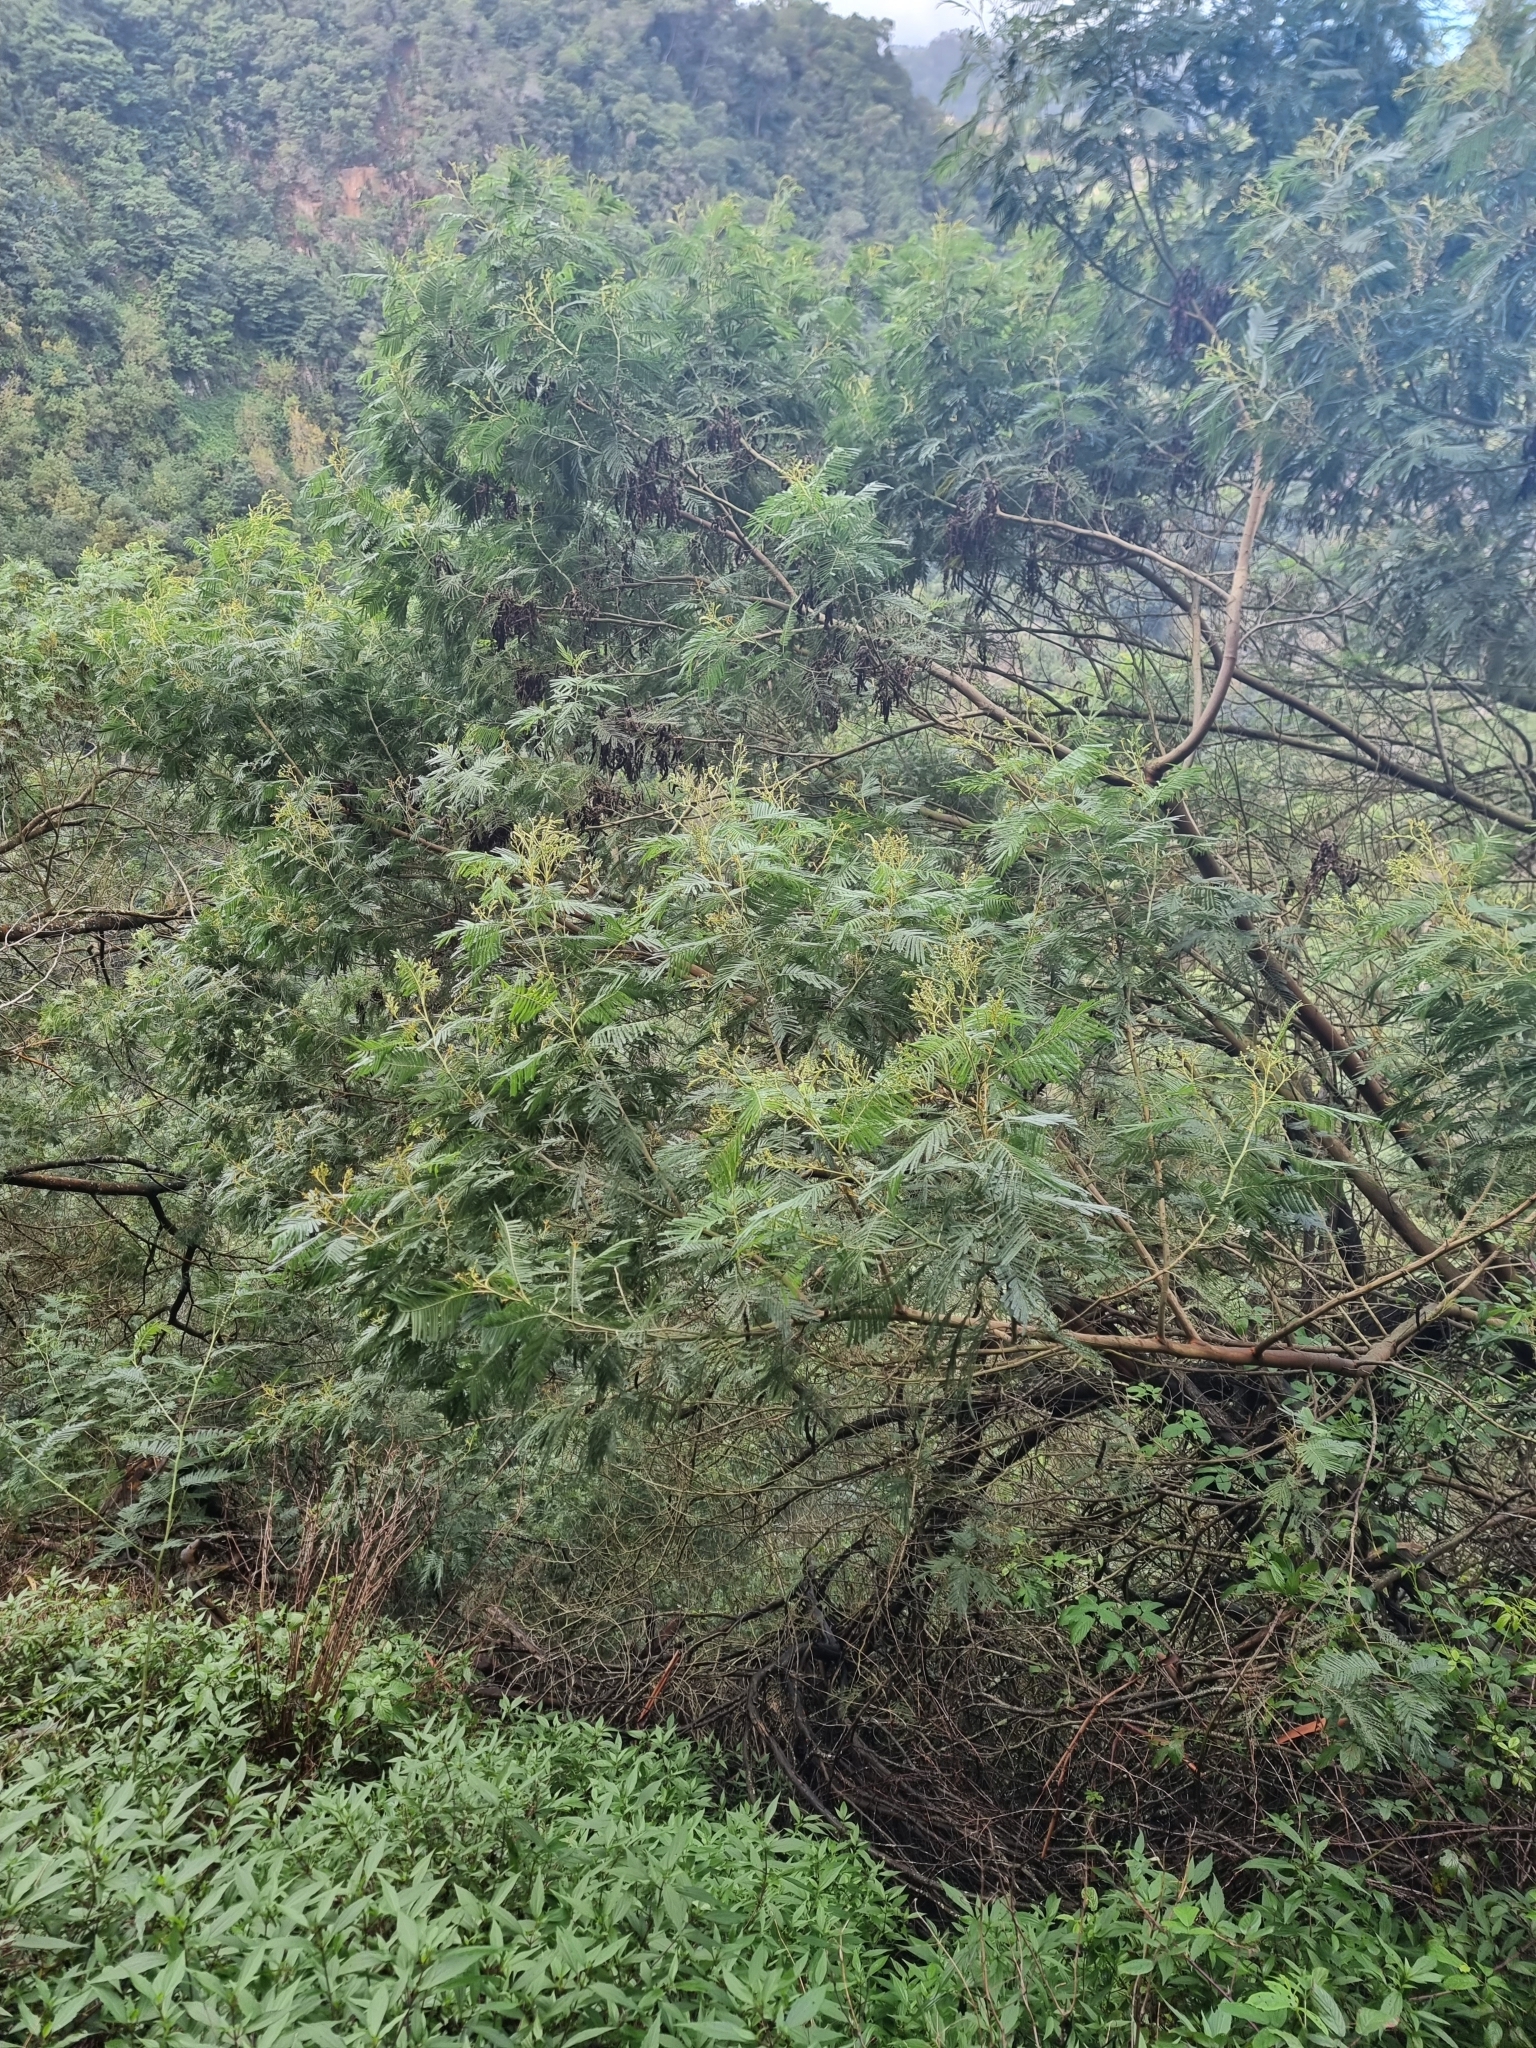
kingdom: Plantae
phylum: Tracheophyta
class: Magnoliopsida
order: Fabales
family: Fabaceae
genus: Acacia
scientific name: Acacia mearnsii
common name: Black wattle
